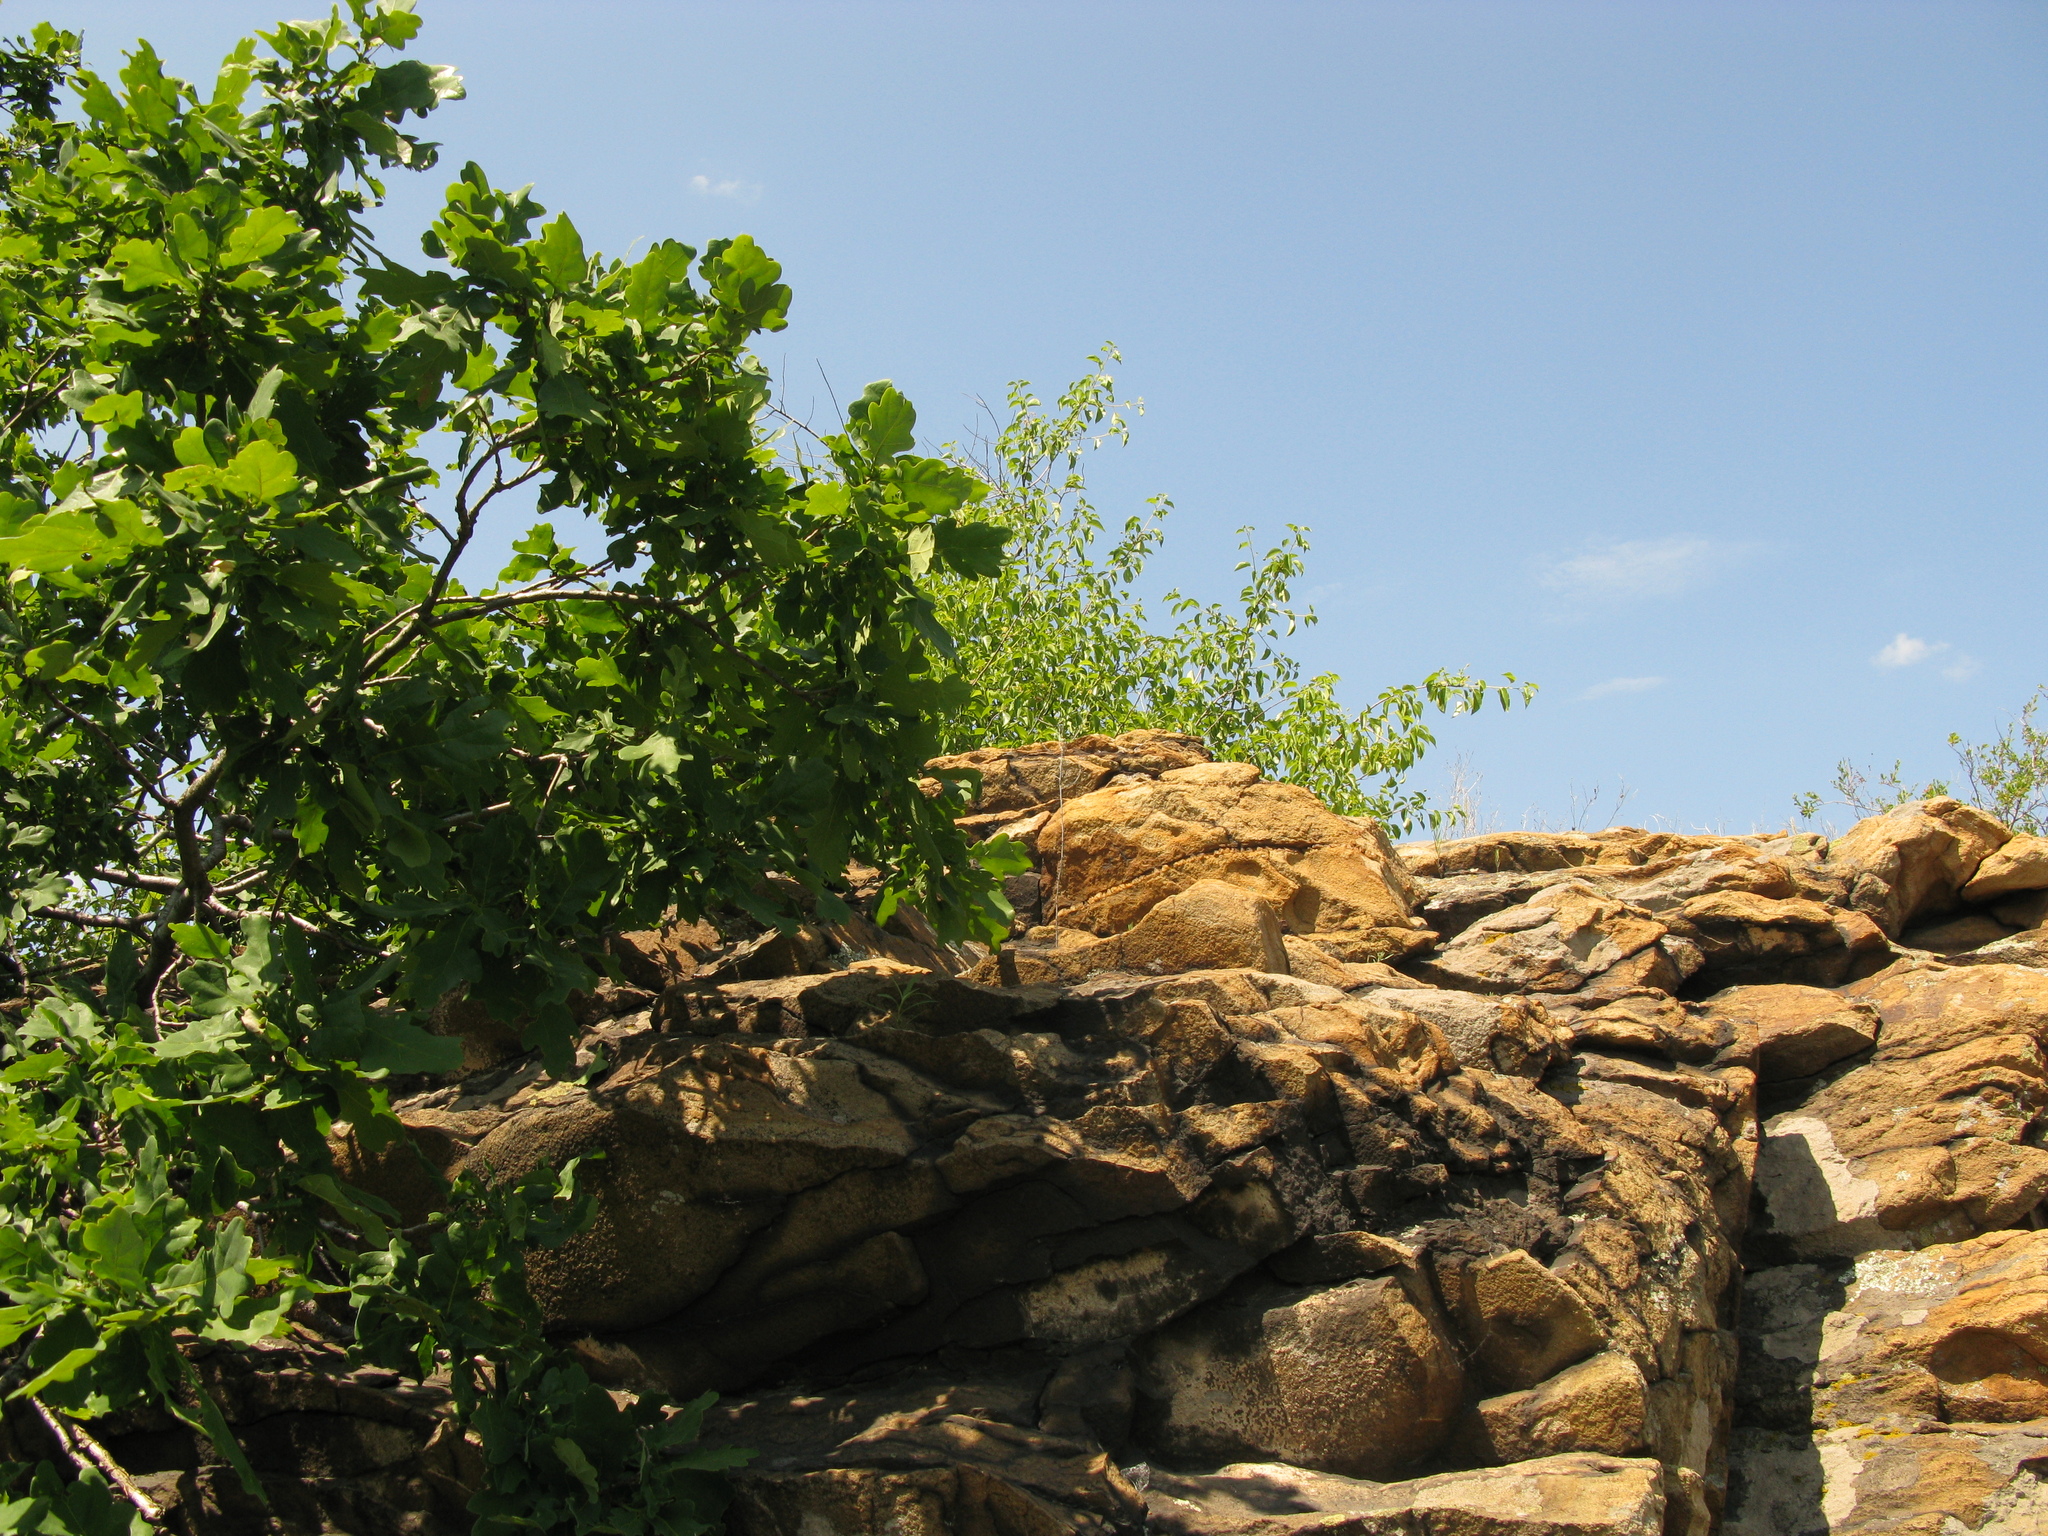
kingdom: Plantae
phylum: Tracheophyta
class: Magnoliopsida
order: Fagales
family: Fagaceae
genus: Quercus
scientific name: Quercus robur
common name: Pedunculate oak
